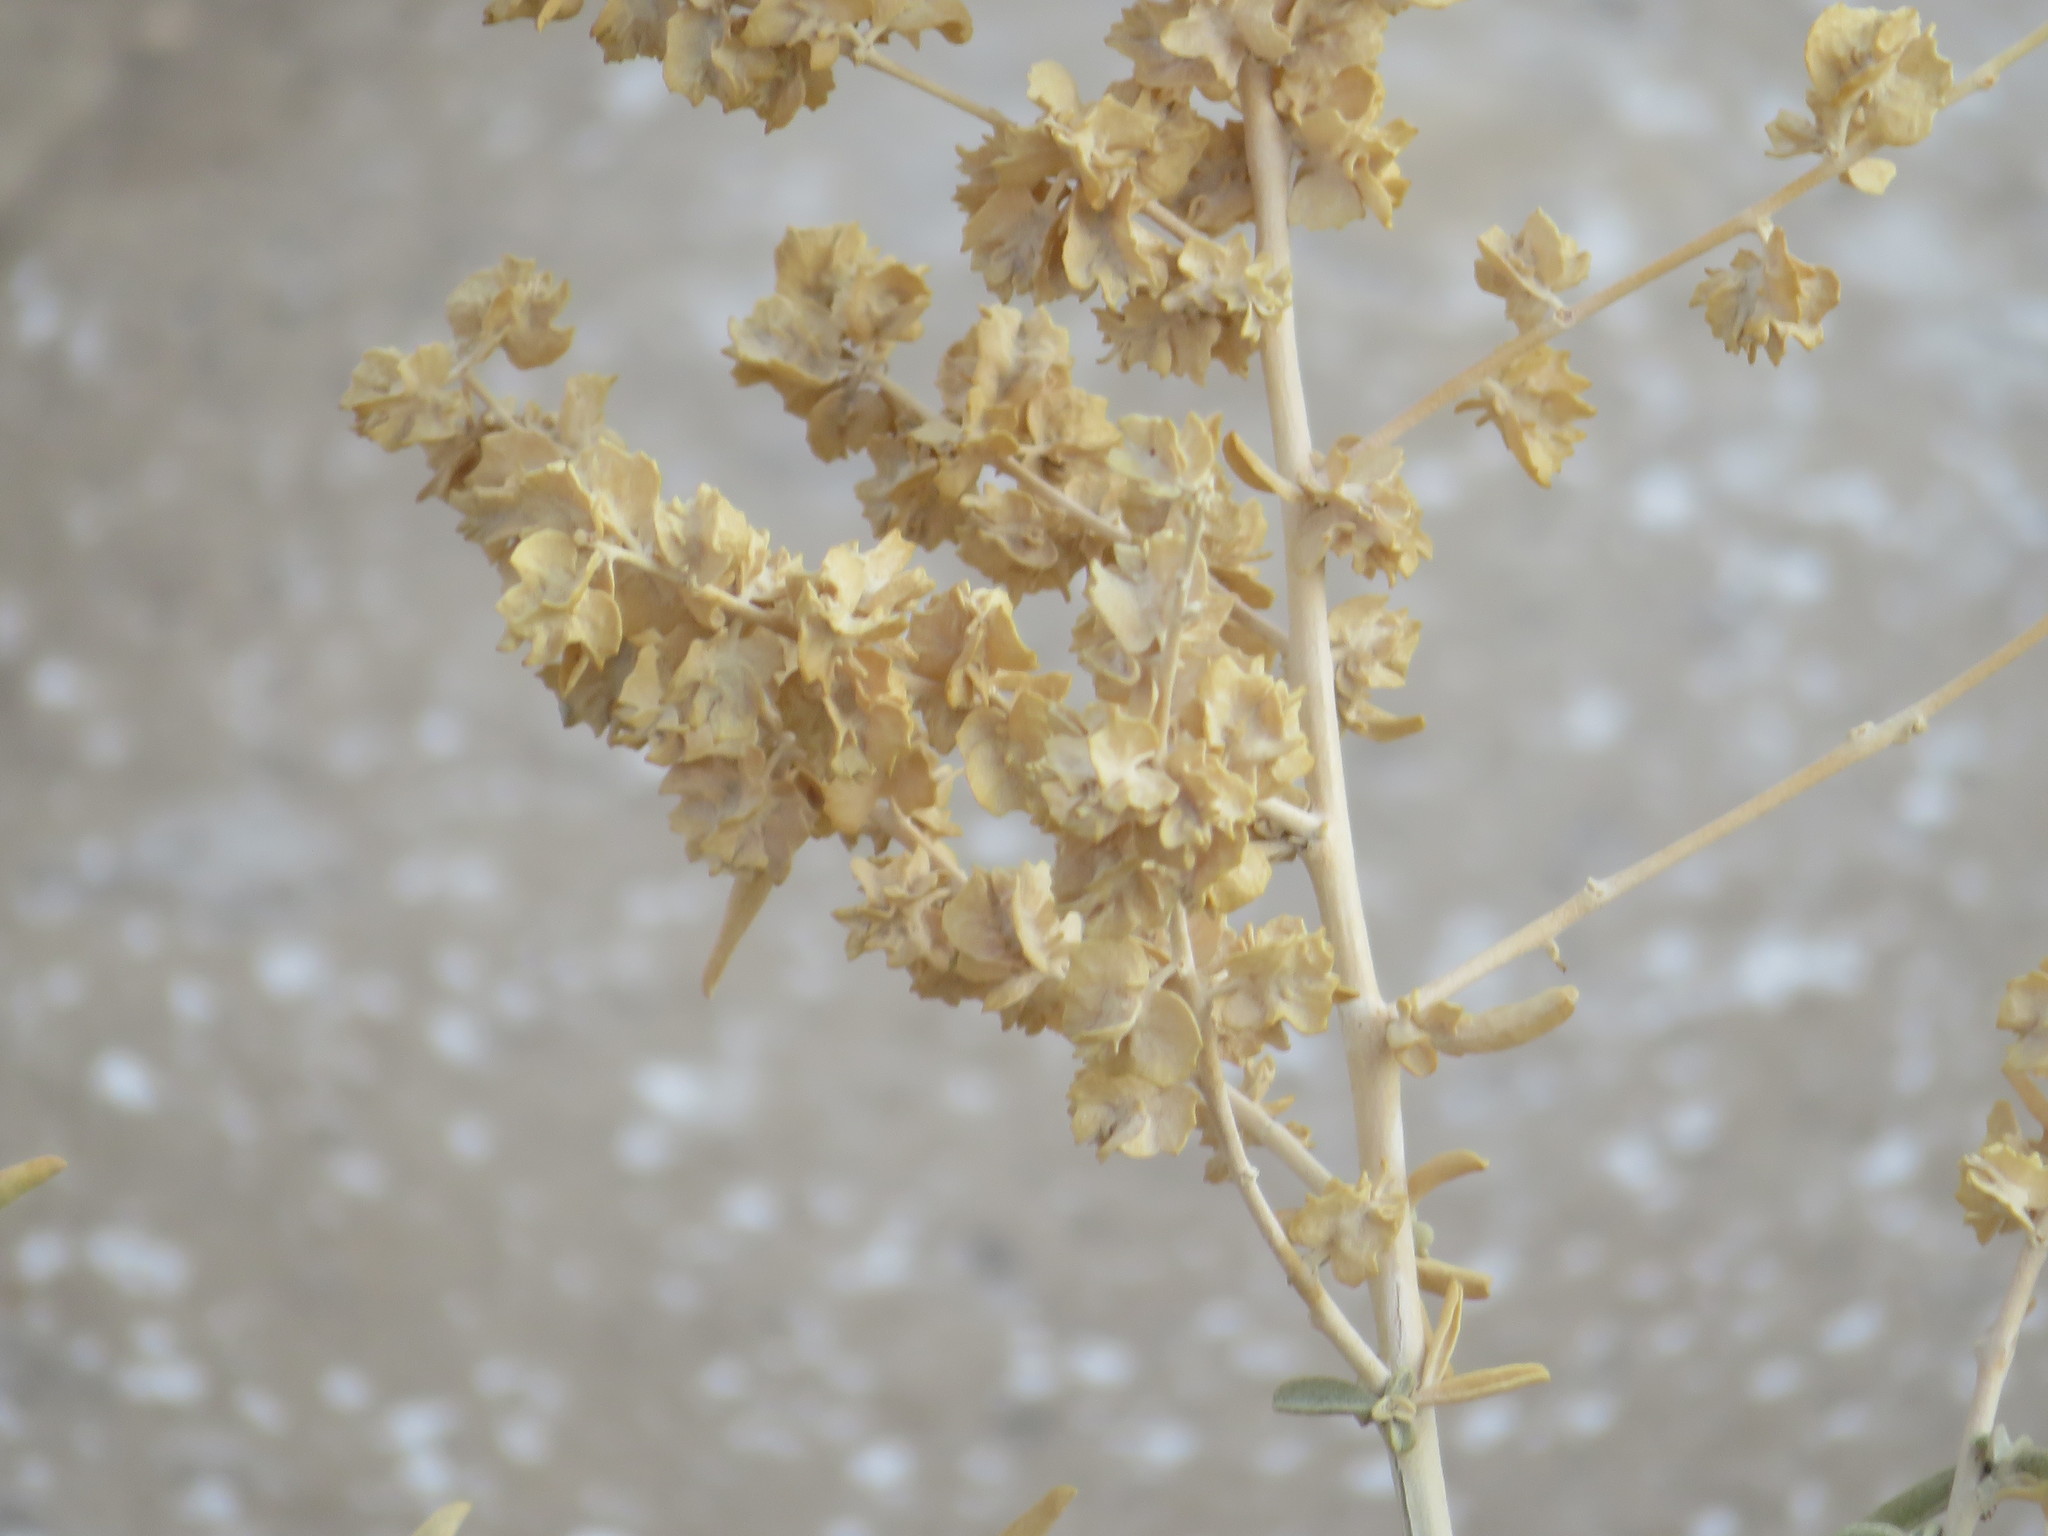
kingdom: Plantae
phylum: Tracheophyta
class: Magnoliopsida
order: Caryophyllales
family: Amaranthaceae
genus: Atriplex
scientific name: Atriplex canescens
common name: Four-wing saltbush
